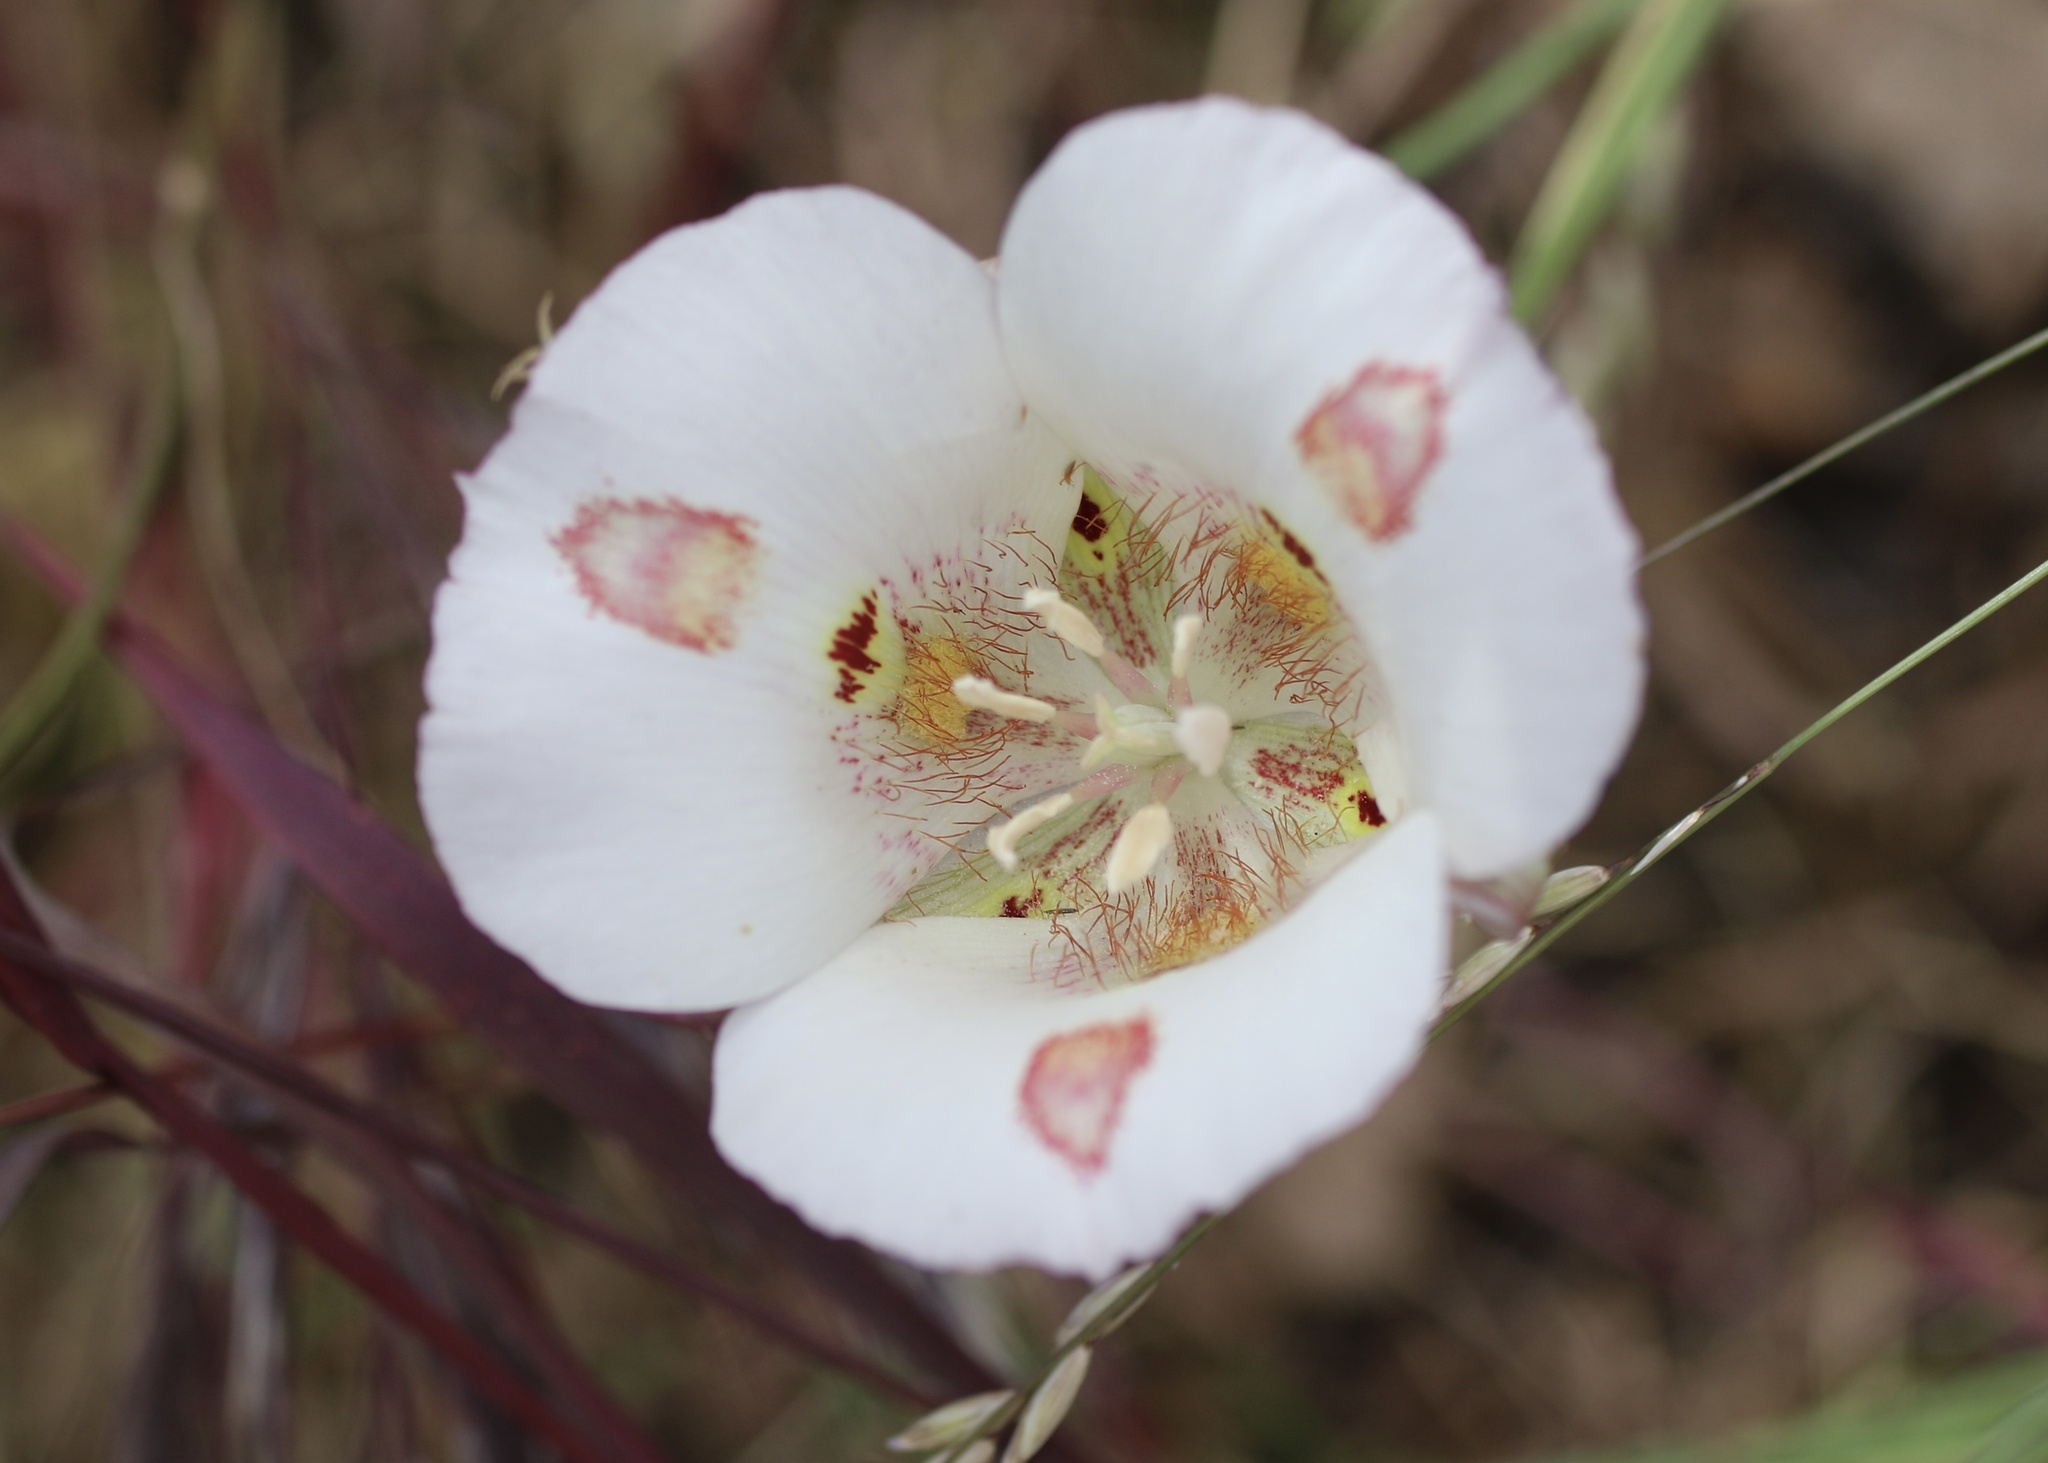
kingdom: Plantae
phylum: Tracheophyta
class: Liliopsida
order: Liliales
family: Liliaceae
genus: Calochortus
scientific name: Calochortus venustus
